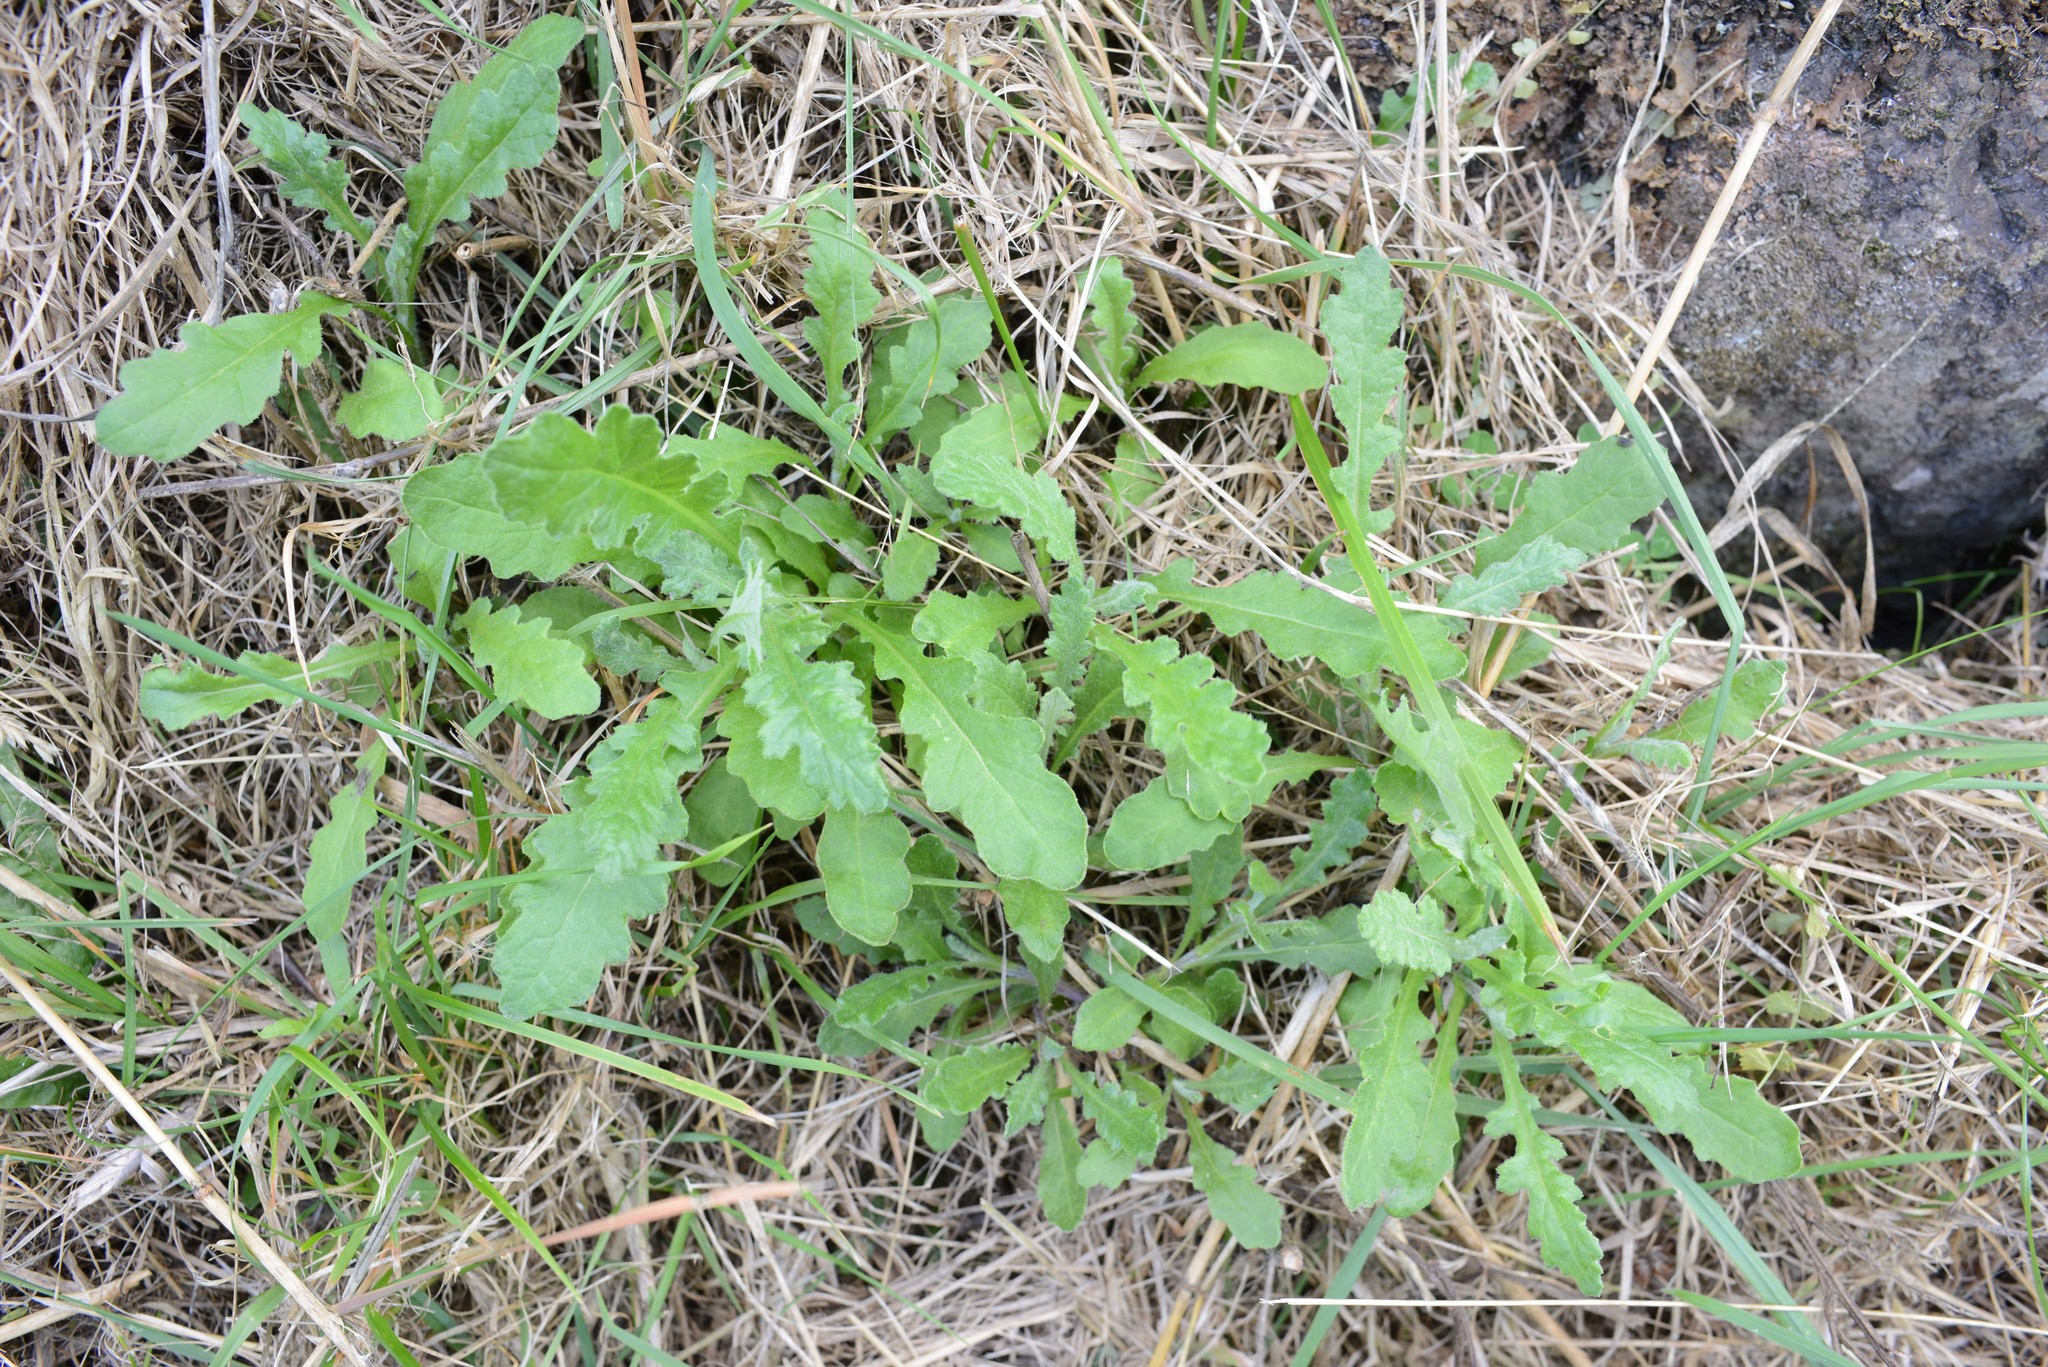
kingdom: Plantae
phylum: Tracheophyta
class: Magnoliopsida
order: Asterales
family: Asteraceae
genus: Senecio
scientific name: Senecio glomeratus
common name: Cutleaf burnweed
